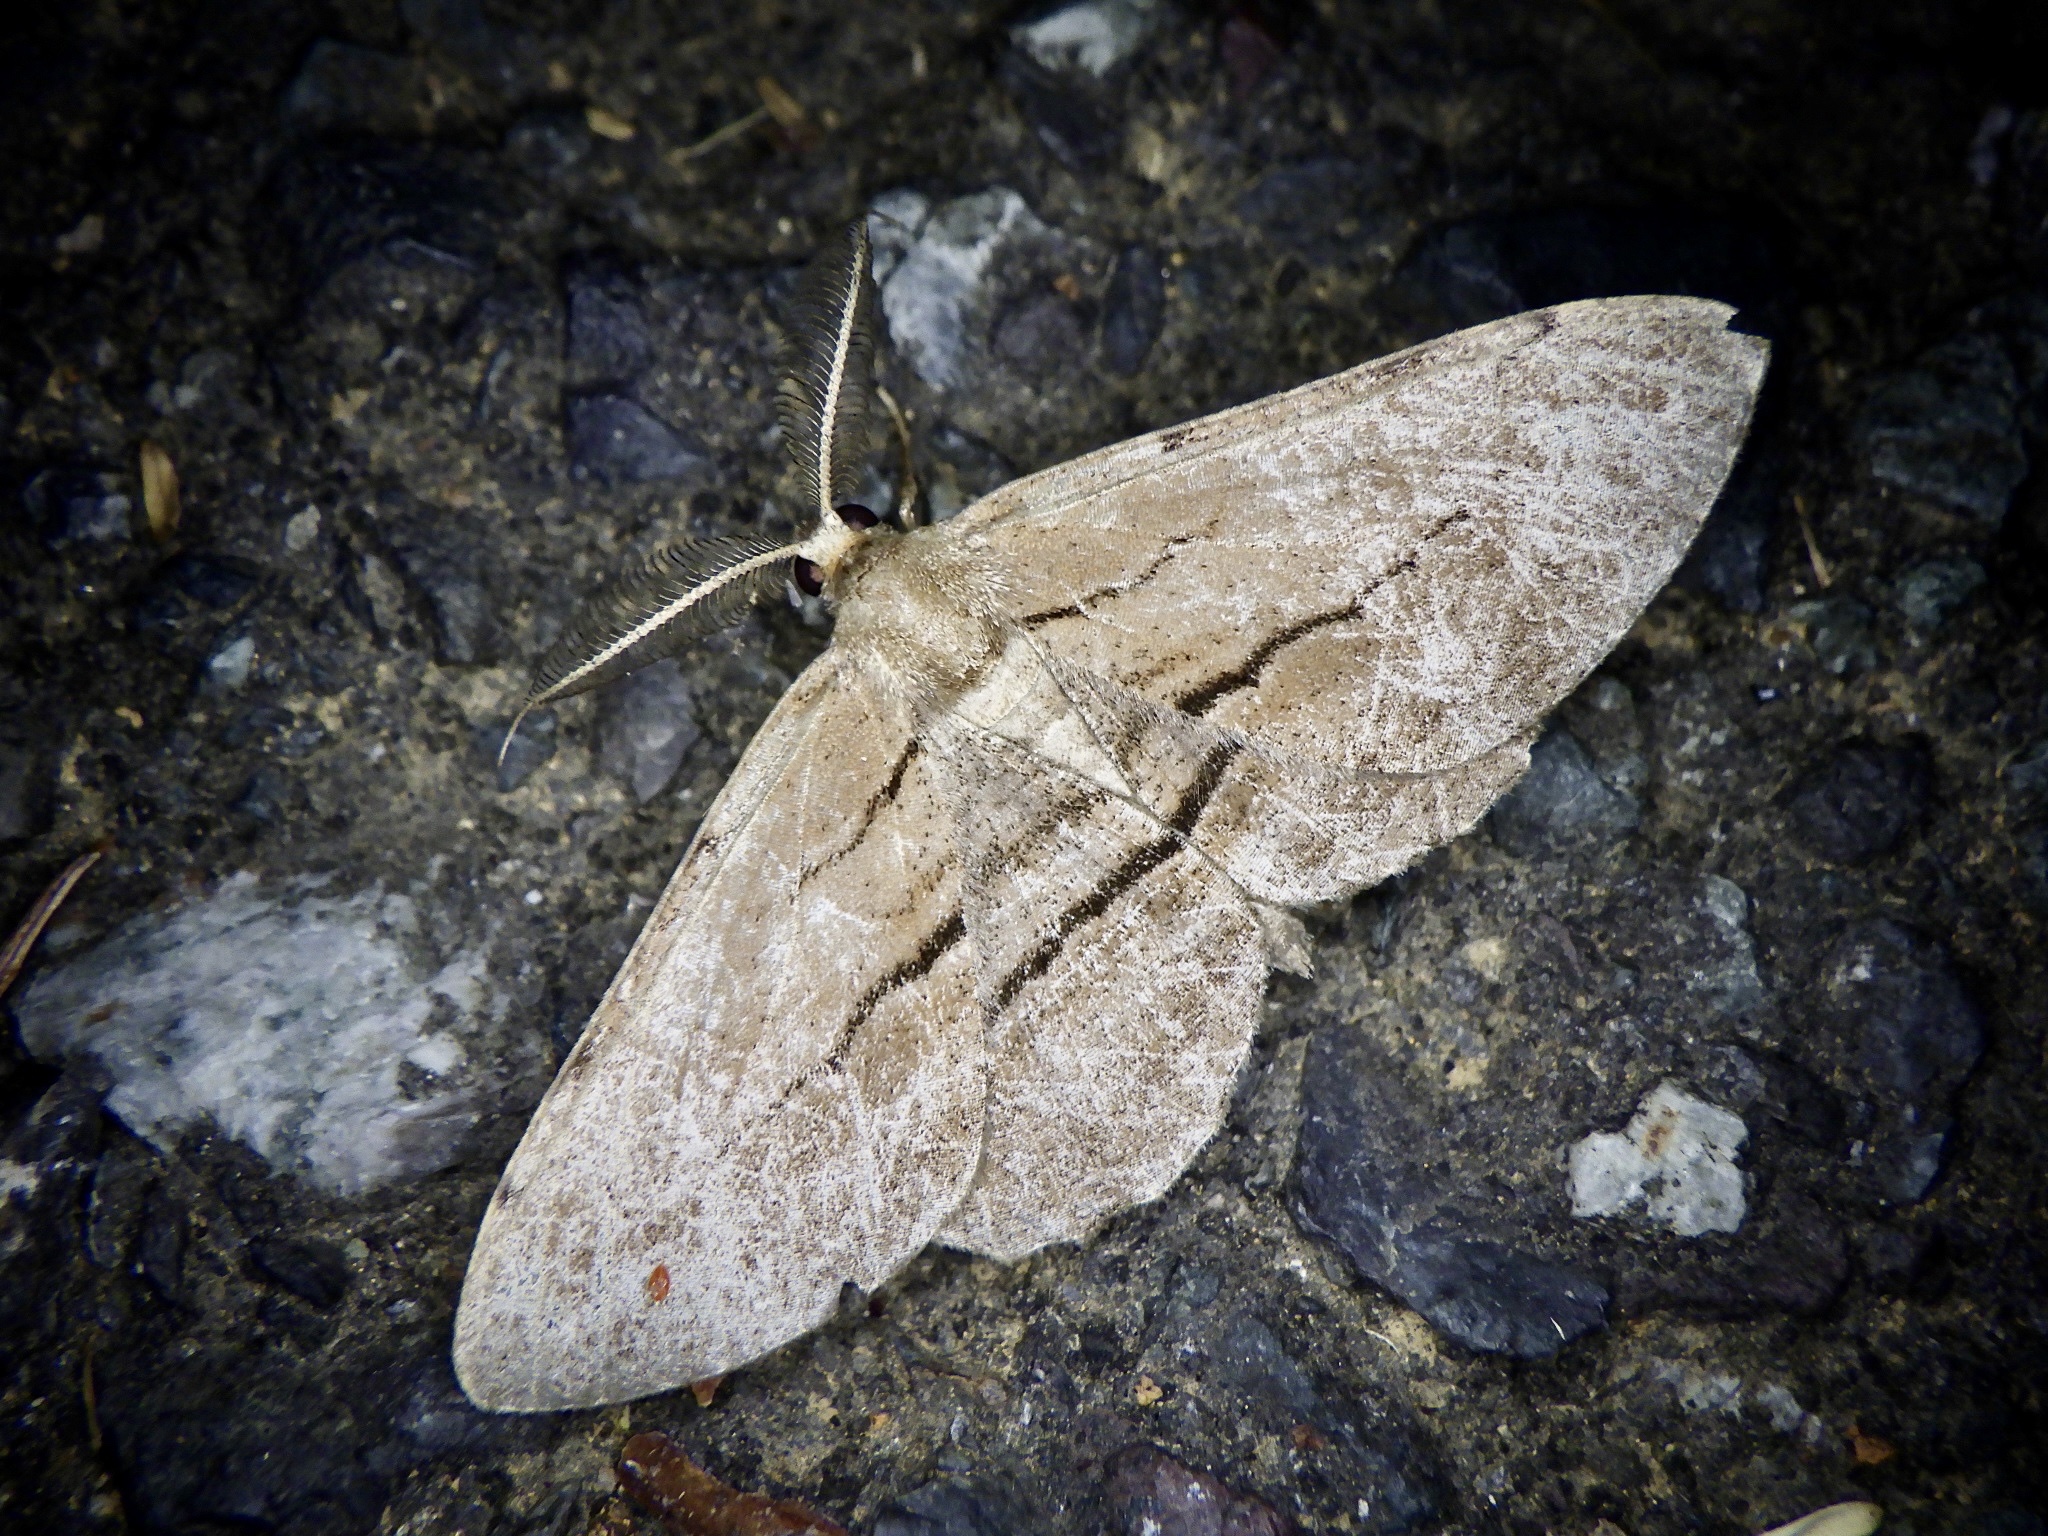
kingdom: Animalia
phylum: Arthropoda
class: Insecta
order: Lepidoptera
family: Geometridae
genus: Apocleora
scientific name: Apocleora rimosa
